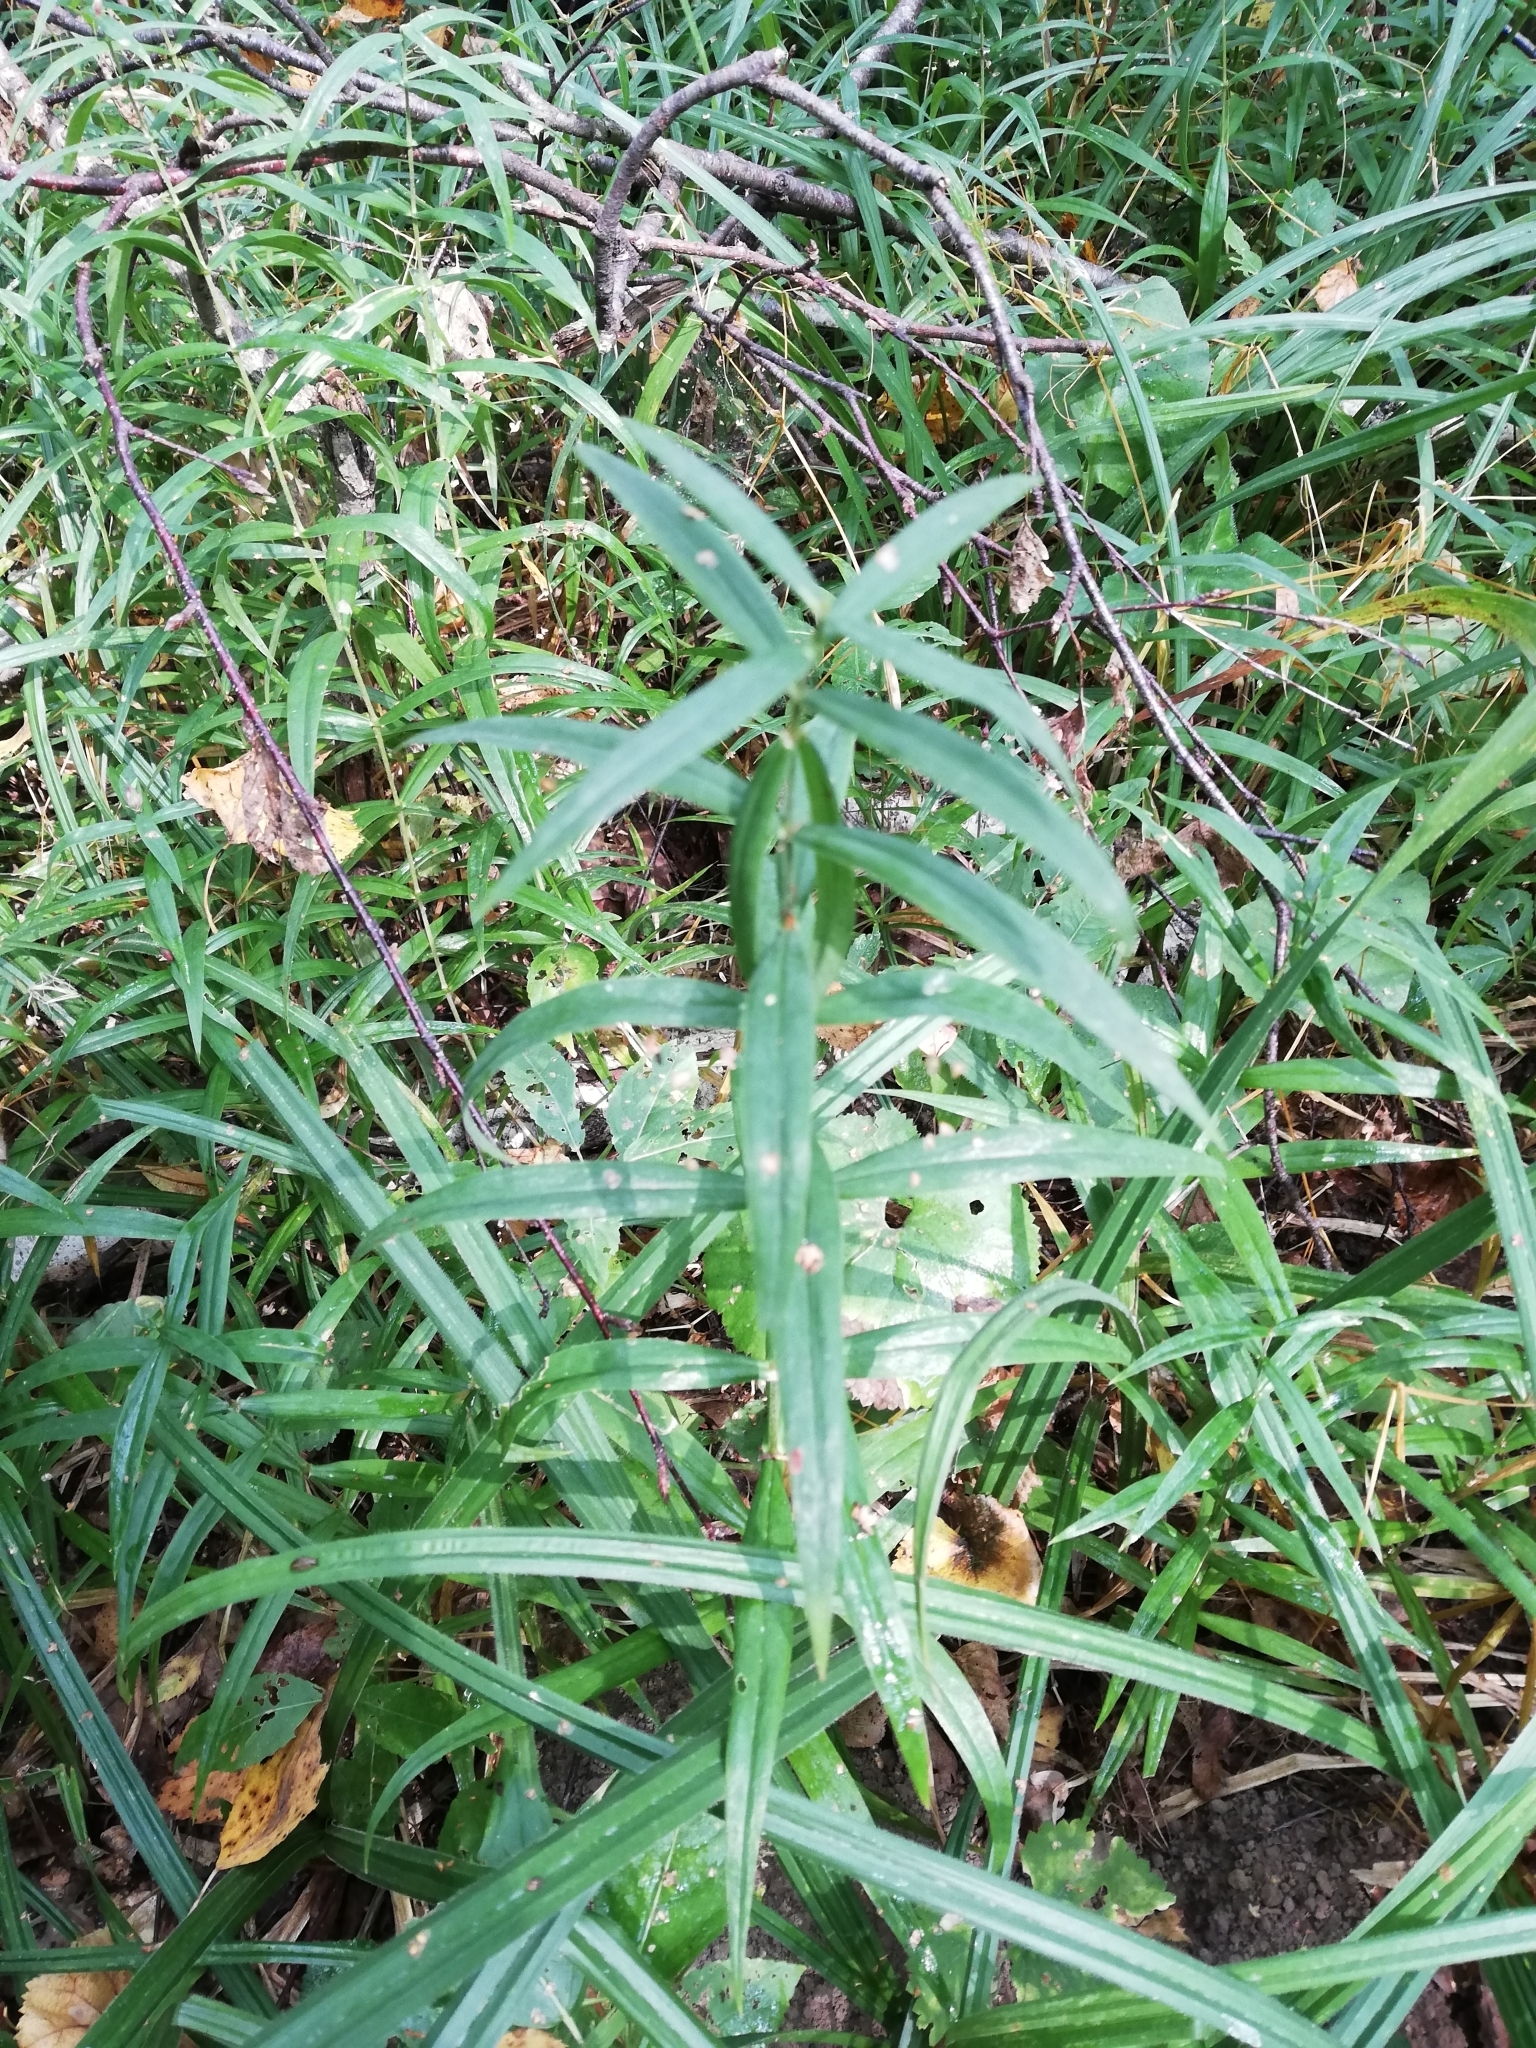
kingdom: Plantae
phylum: Tracheophyta
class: Magnoliopsida
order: Caryophyllales
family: Caryophyllaceae
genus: Rabelera
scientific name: Rabelera holostea
